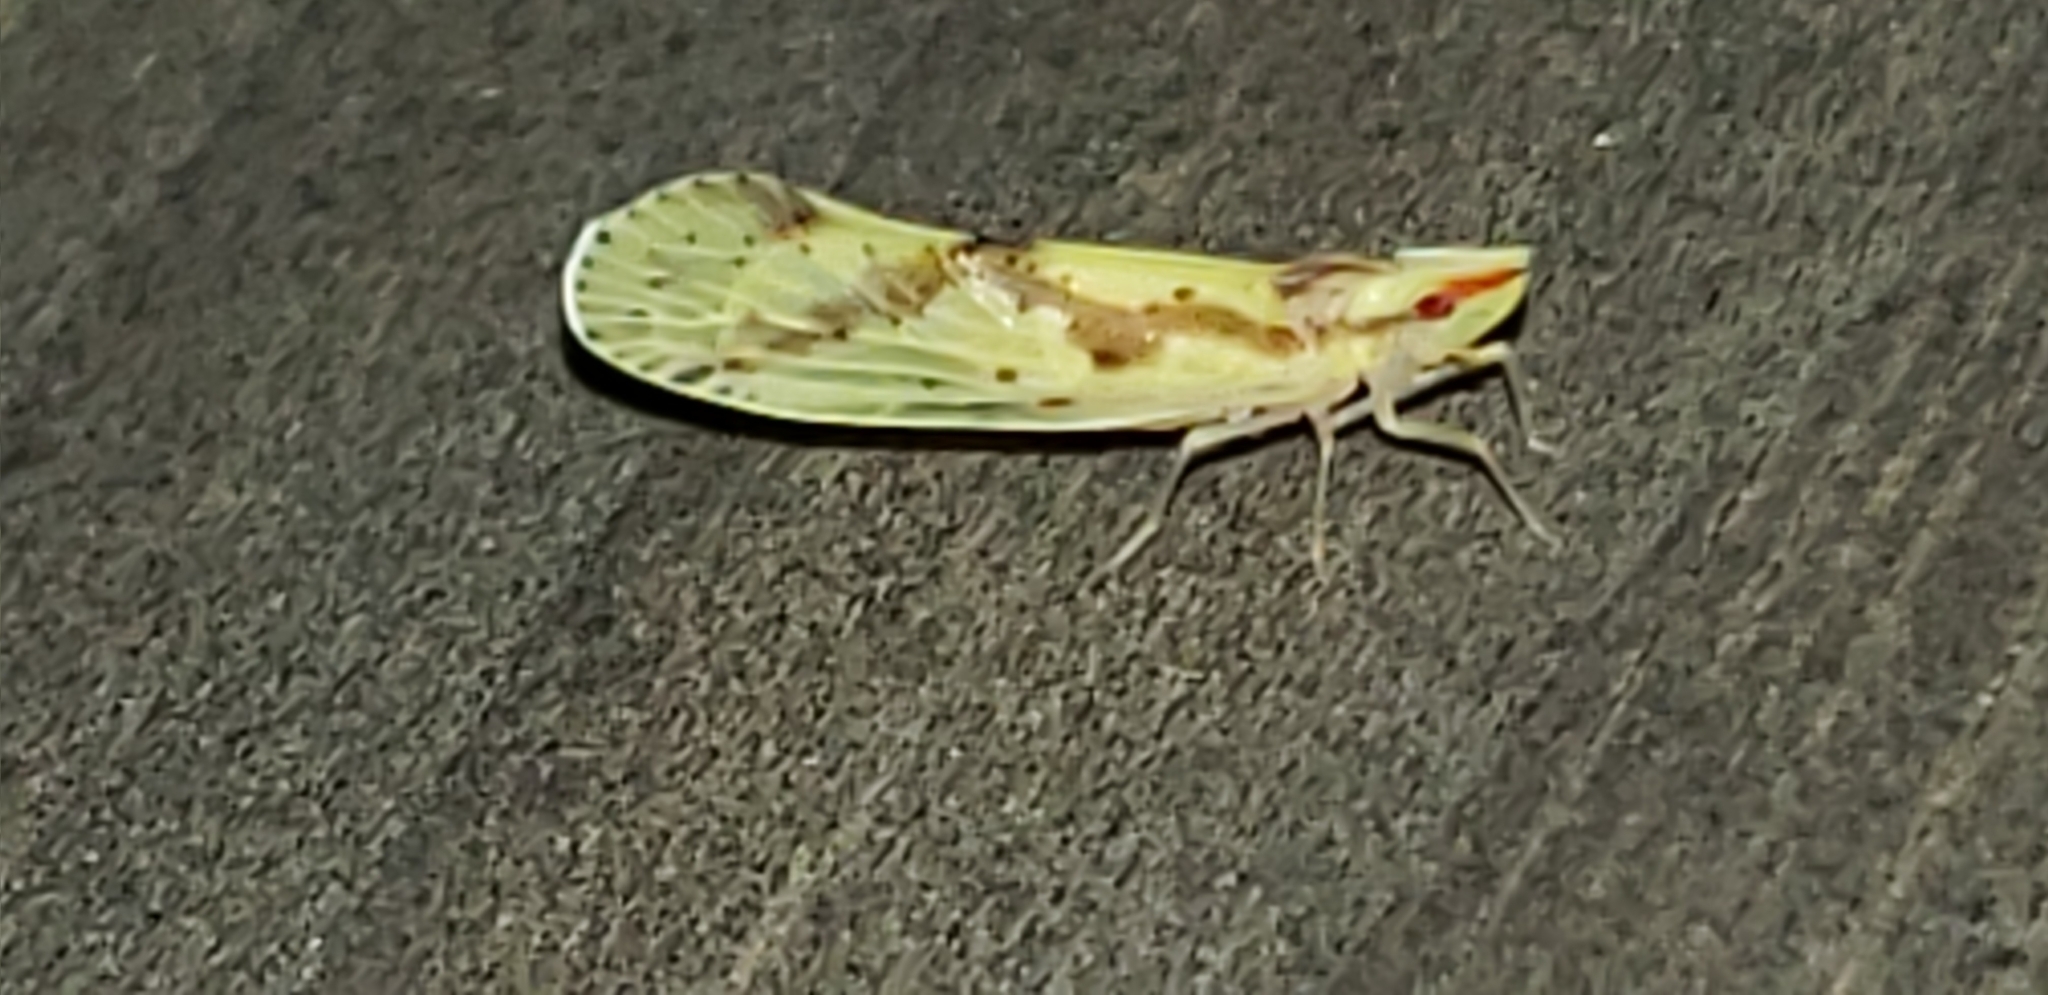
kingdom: Animalia
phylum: Arthropoda
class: Insecta
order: Hemiptera
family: Derbidae
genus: Otiocerus
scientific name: Otiocerus wolfii
